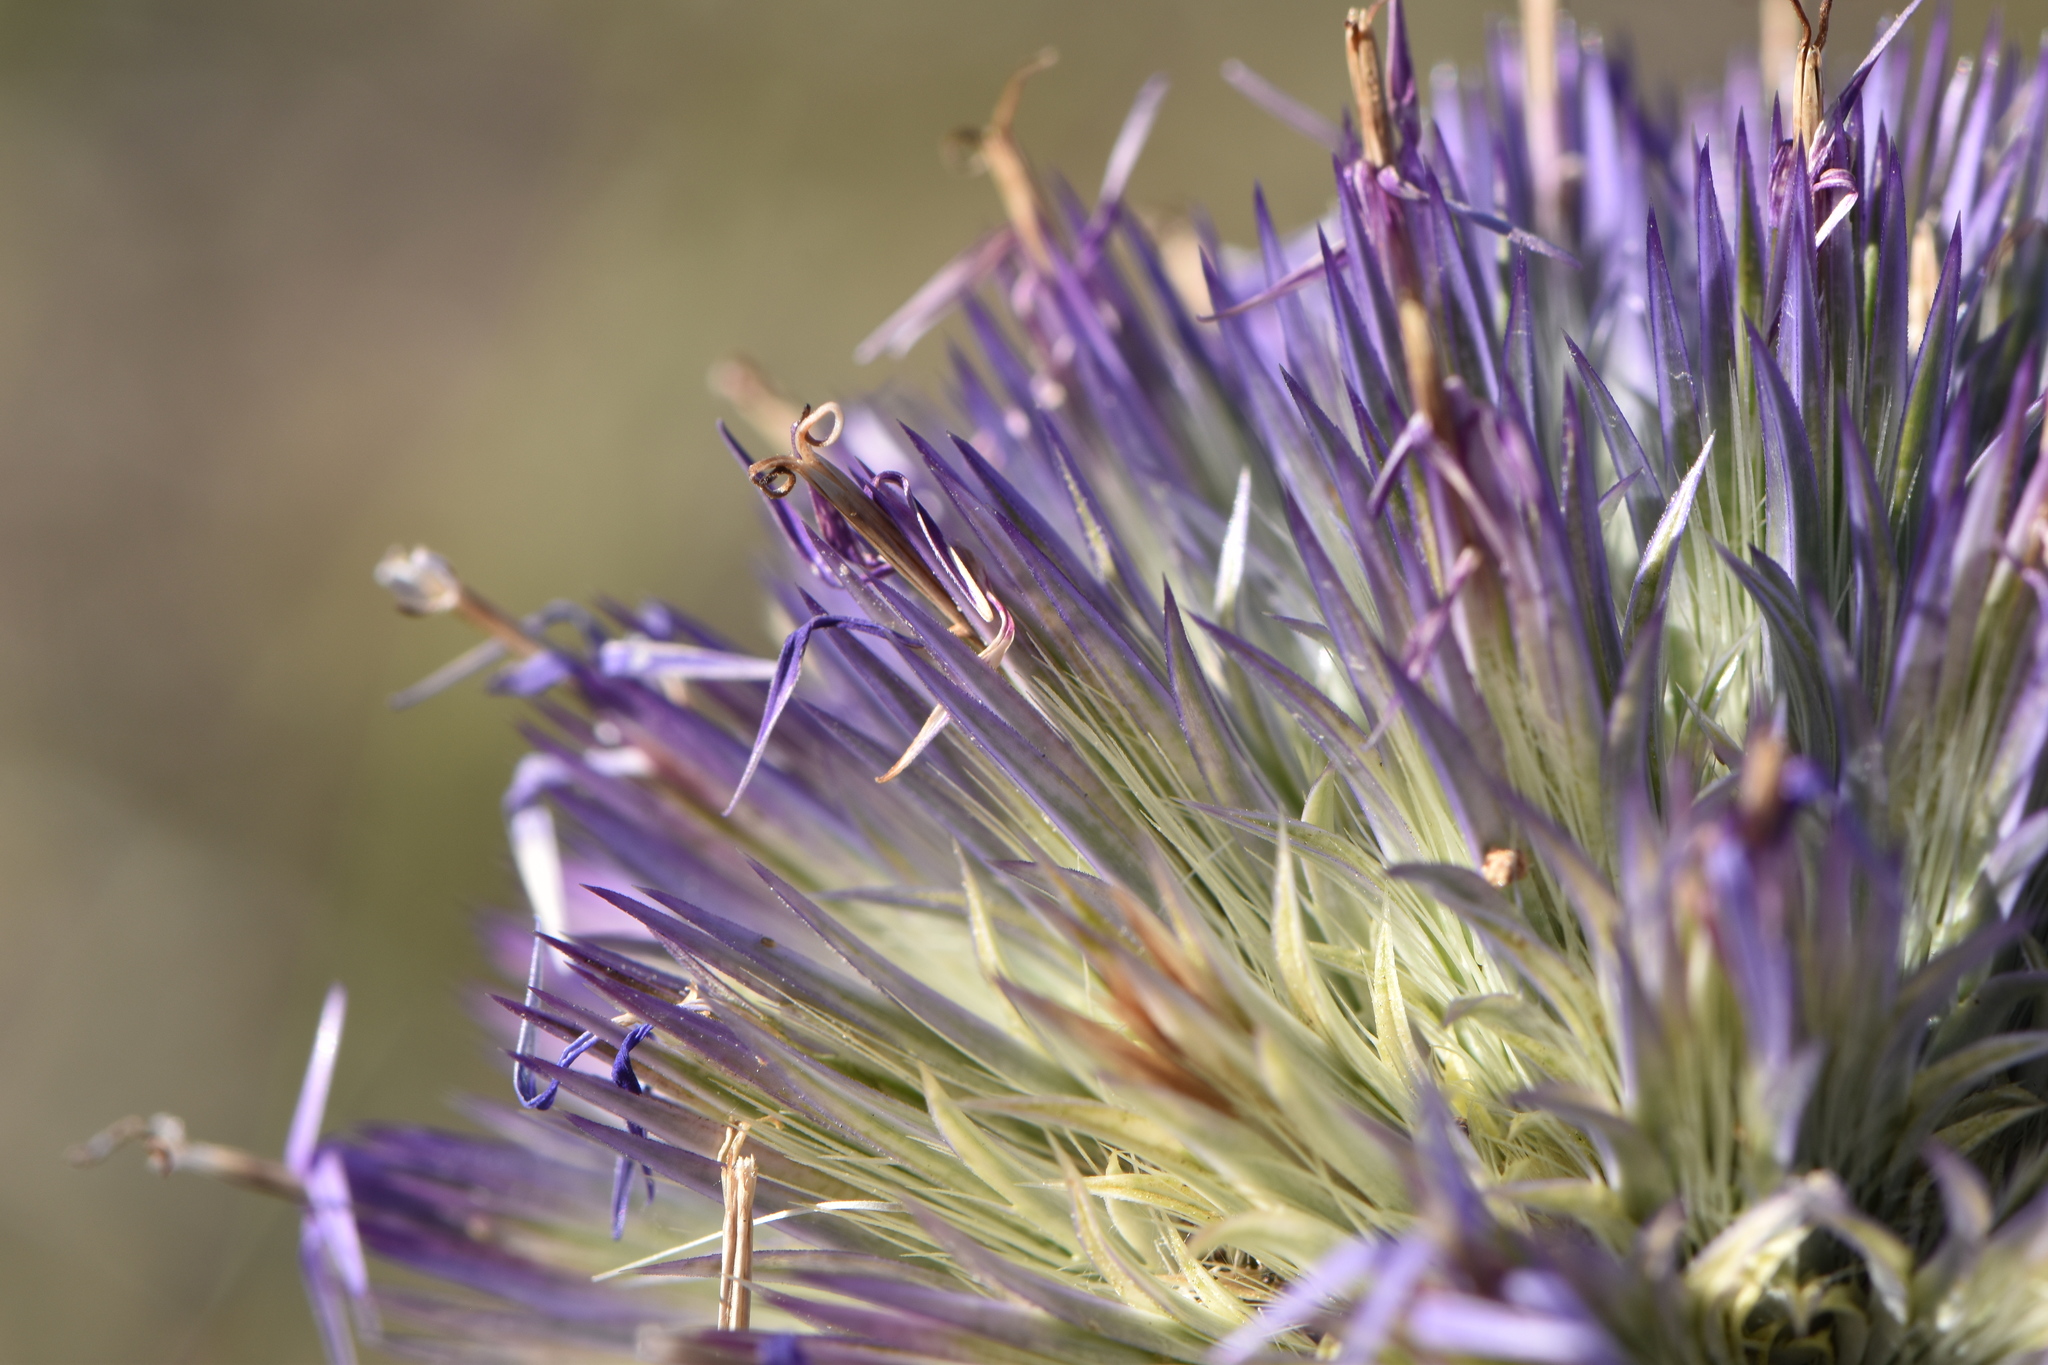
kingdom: Plantae
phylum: Tracheophyta
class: Magnoliopsida
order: Asterales
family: Asteraceae
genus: Echinops
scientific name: Echinops strigosus
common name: Rough-leaf globe thistle
